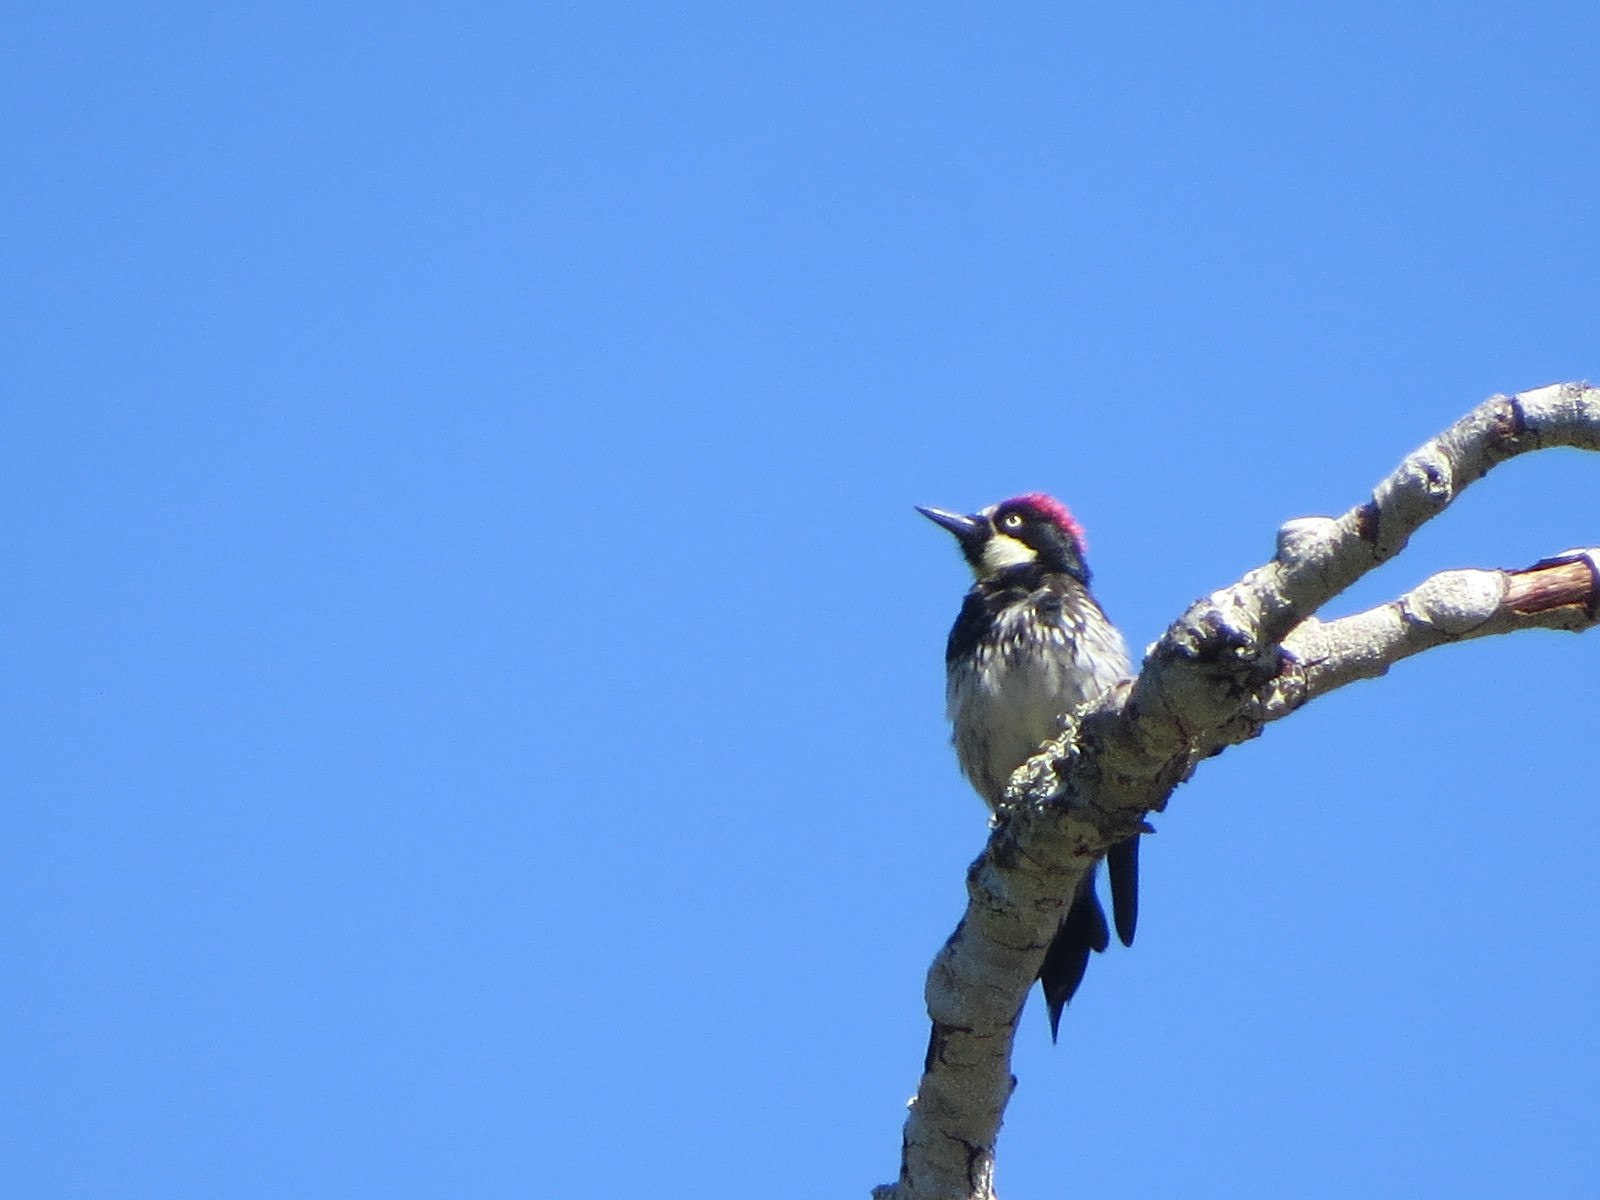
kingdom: Animalia
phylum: Chordata
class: Aves
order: Piciformes
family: Picidae
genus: Melanerpes
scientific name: Melanerpes formicivorus
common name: Acorn woodpecker
